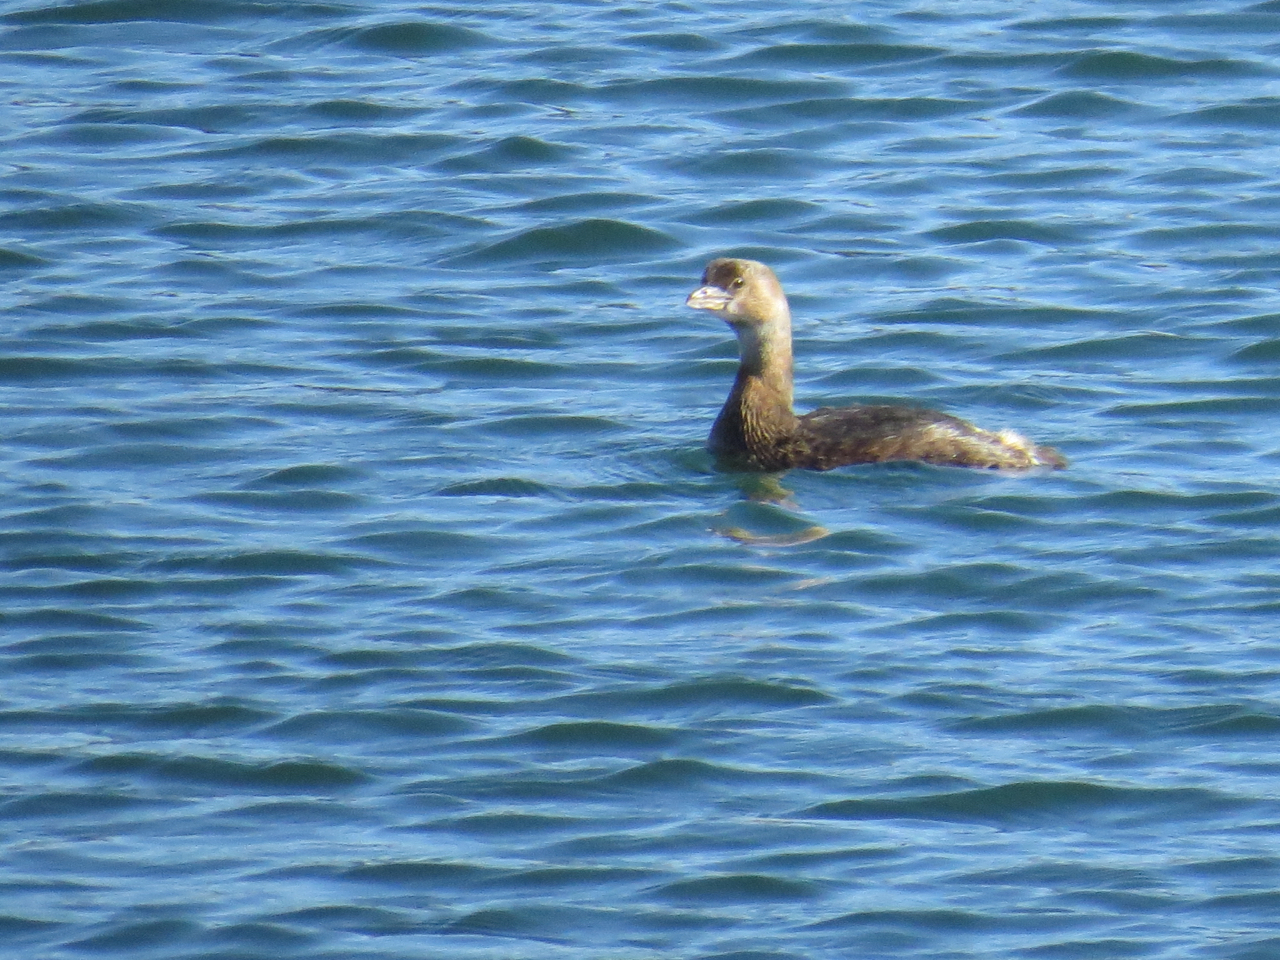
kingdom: Animalia
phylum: Chordata
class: Aves
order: Podicipediformes
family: Podicipedidae
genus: Podilymbus
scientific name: Podilymbus podiceps
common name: Pied-billed grebe
